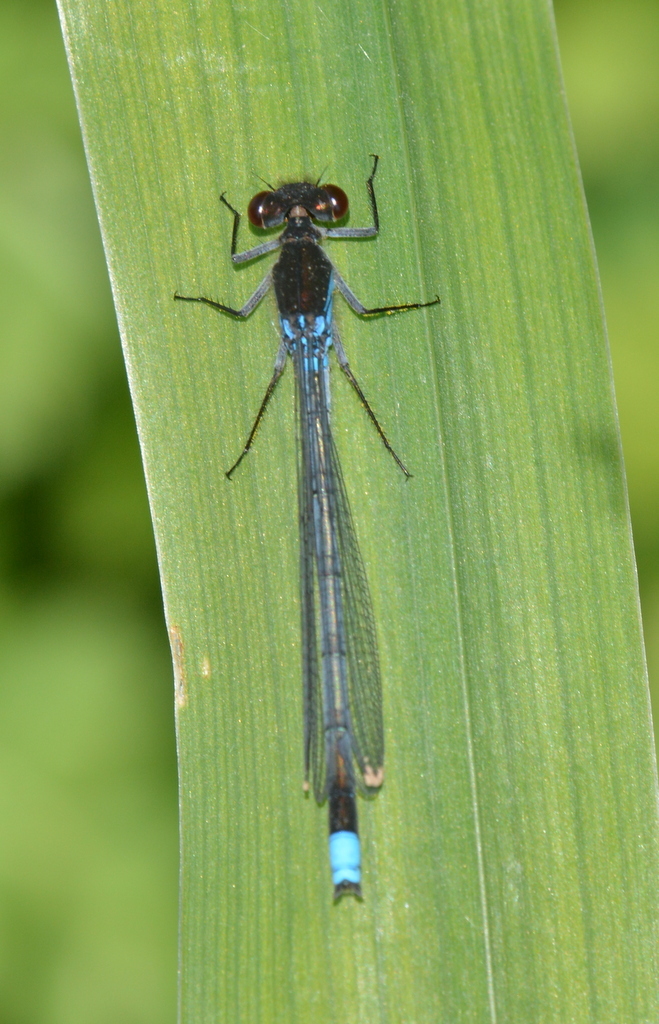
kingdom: Animalia
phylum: Arthropoda
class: Insecta
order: Odonata
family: Coenagrionidae
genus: Erythromma
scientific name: Erythromma najas
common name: Red-eyed damselfly
